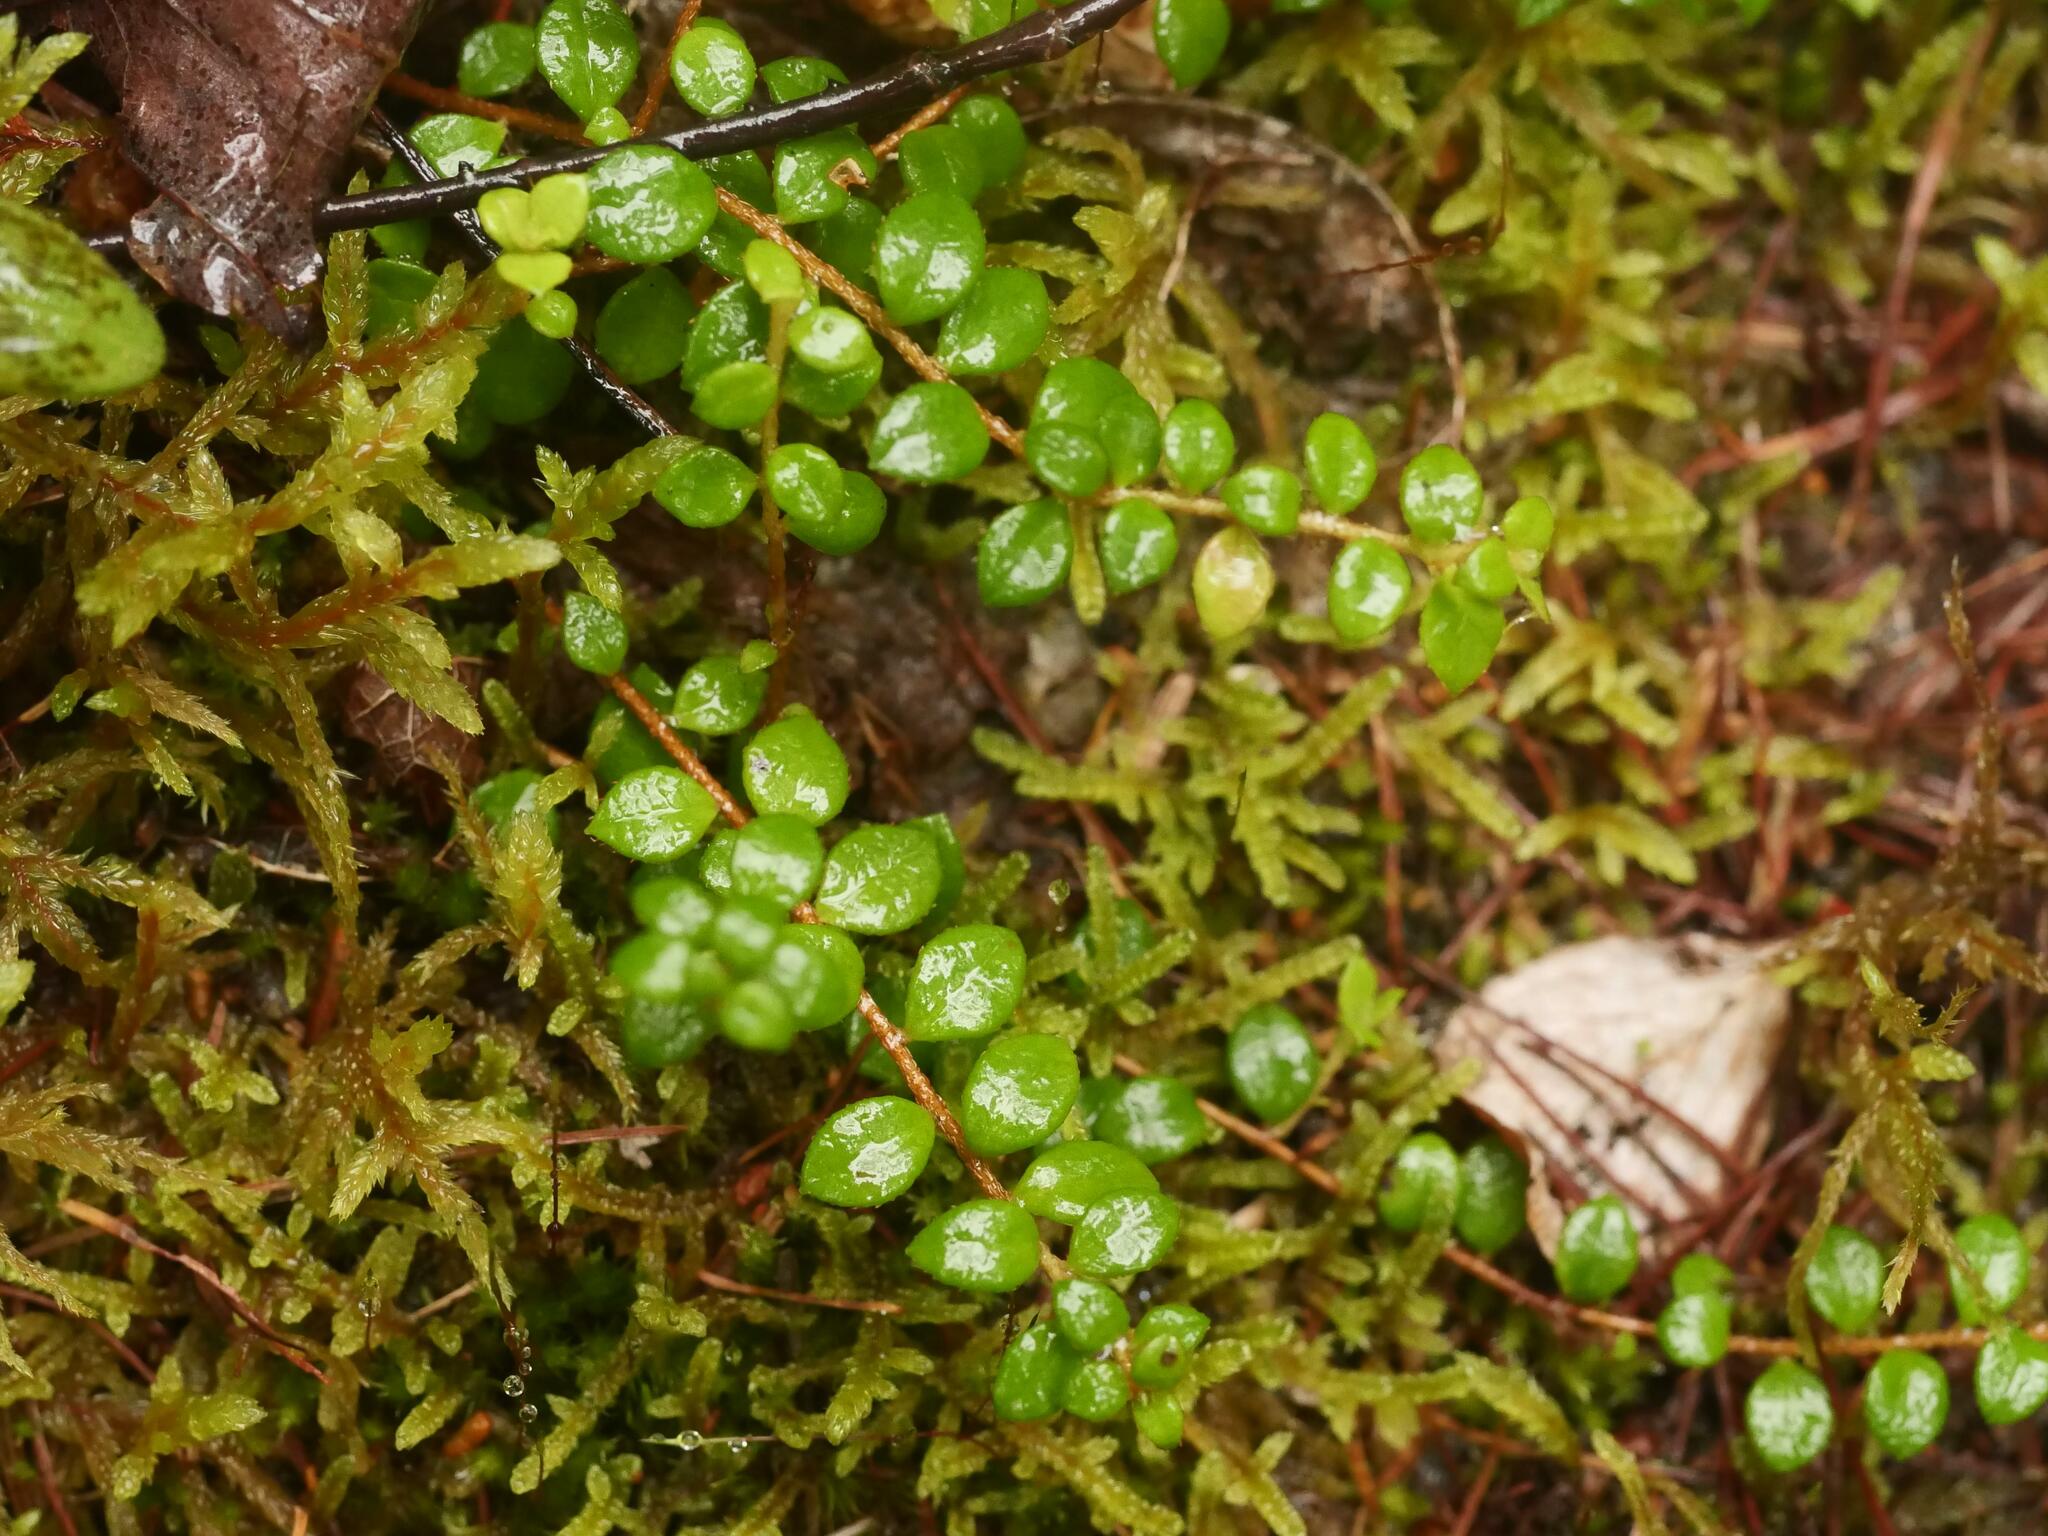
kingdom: Plantae
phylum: Tracheophyta
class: Magnoliopsida
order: Ericales
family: Ericaceae
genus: Gaultheria
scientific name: Gaultheria hispidula
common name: Cancer wintergreen
